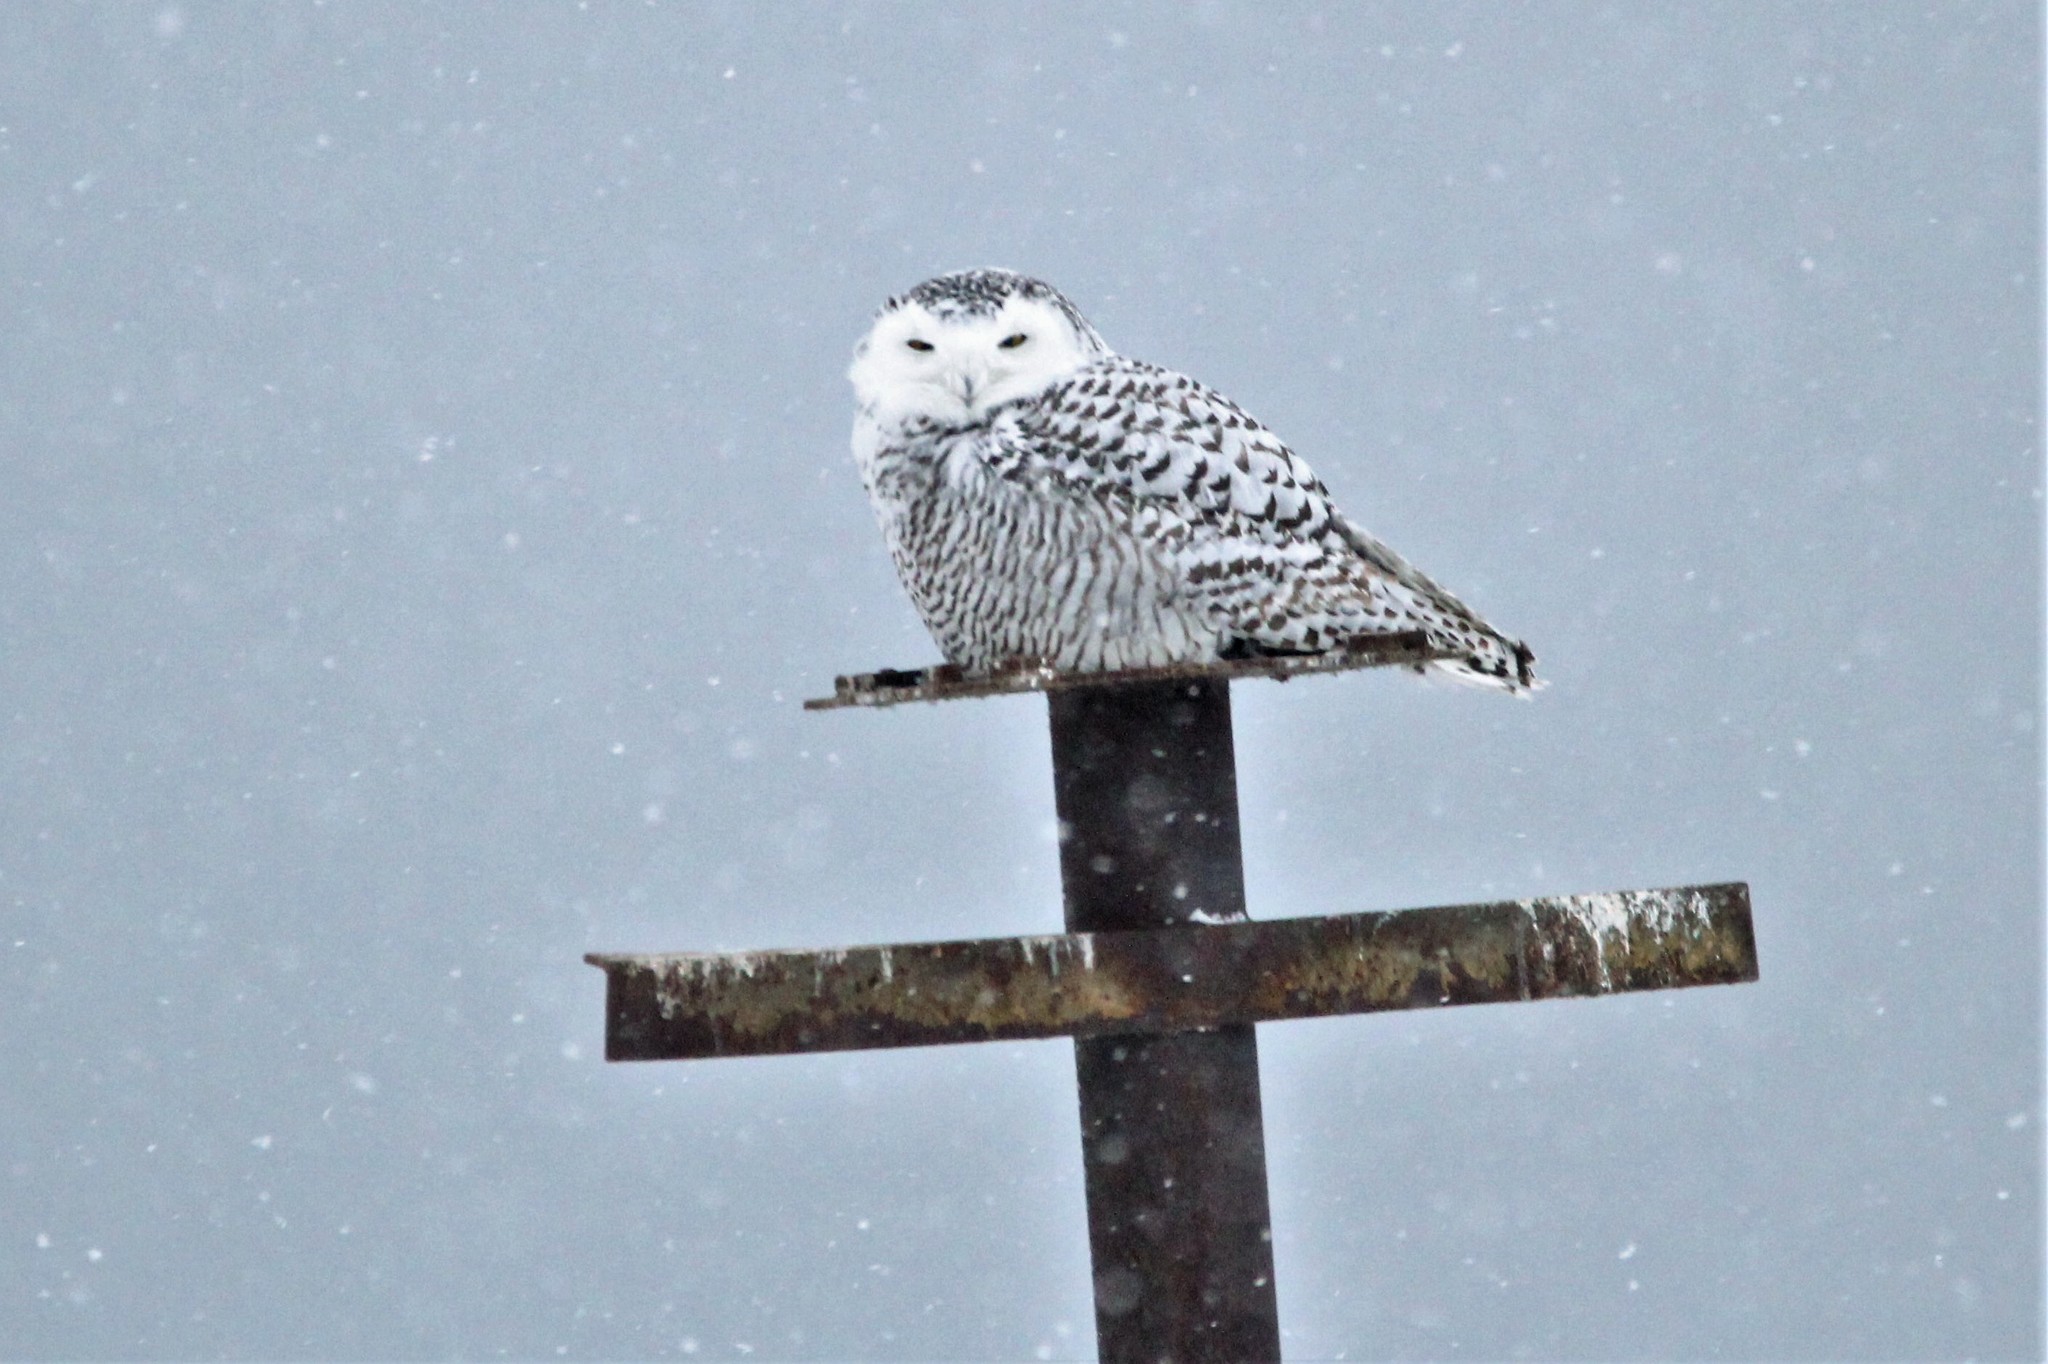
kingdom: Animalia
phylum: Chordata
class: Aves
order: Strigiformes
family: Strigidae
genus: Bubo
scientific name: Bubo scandiacus
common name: Snowy owl
